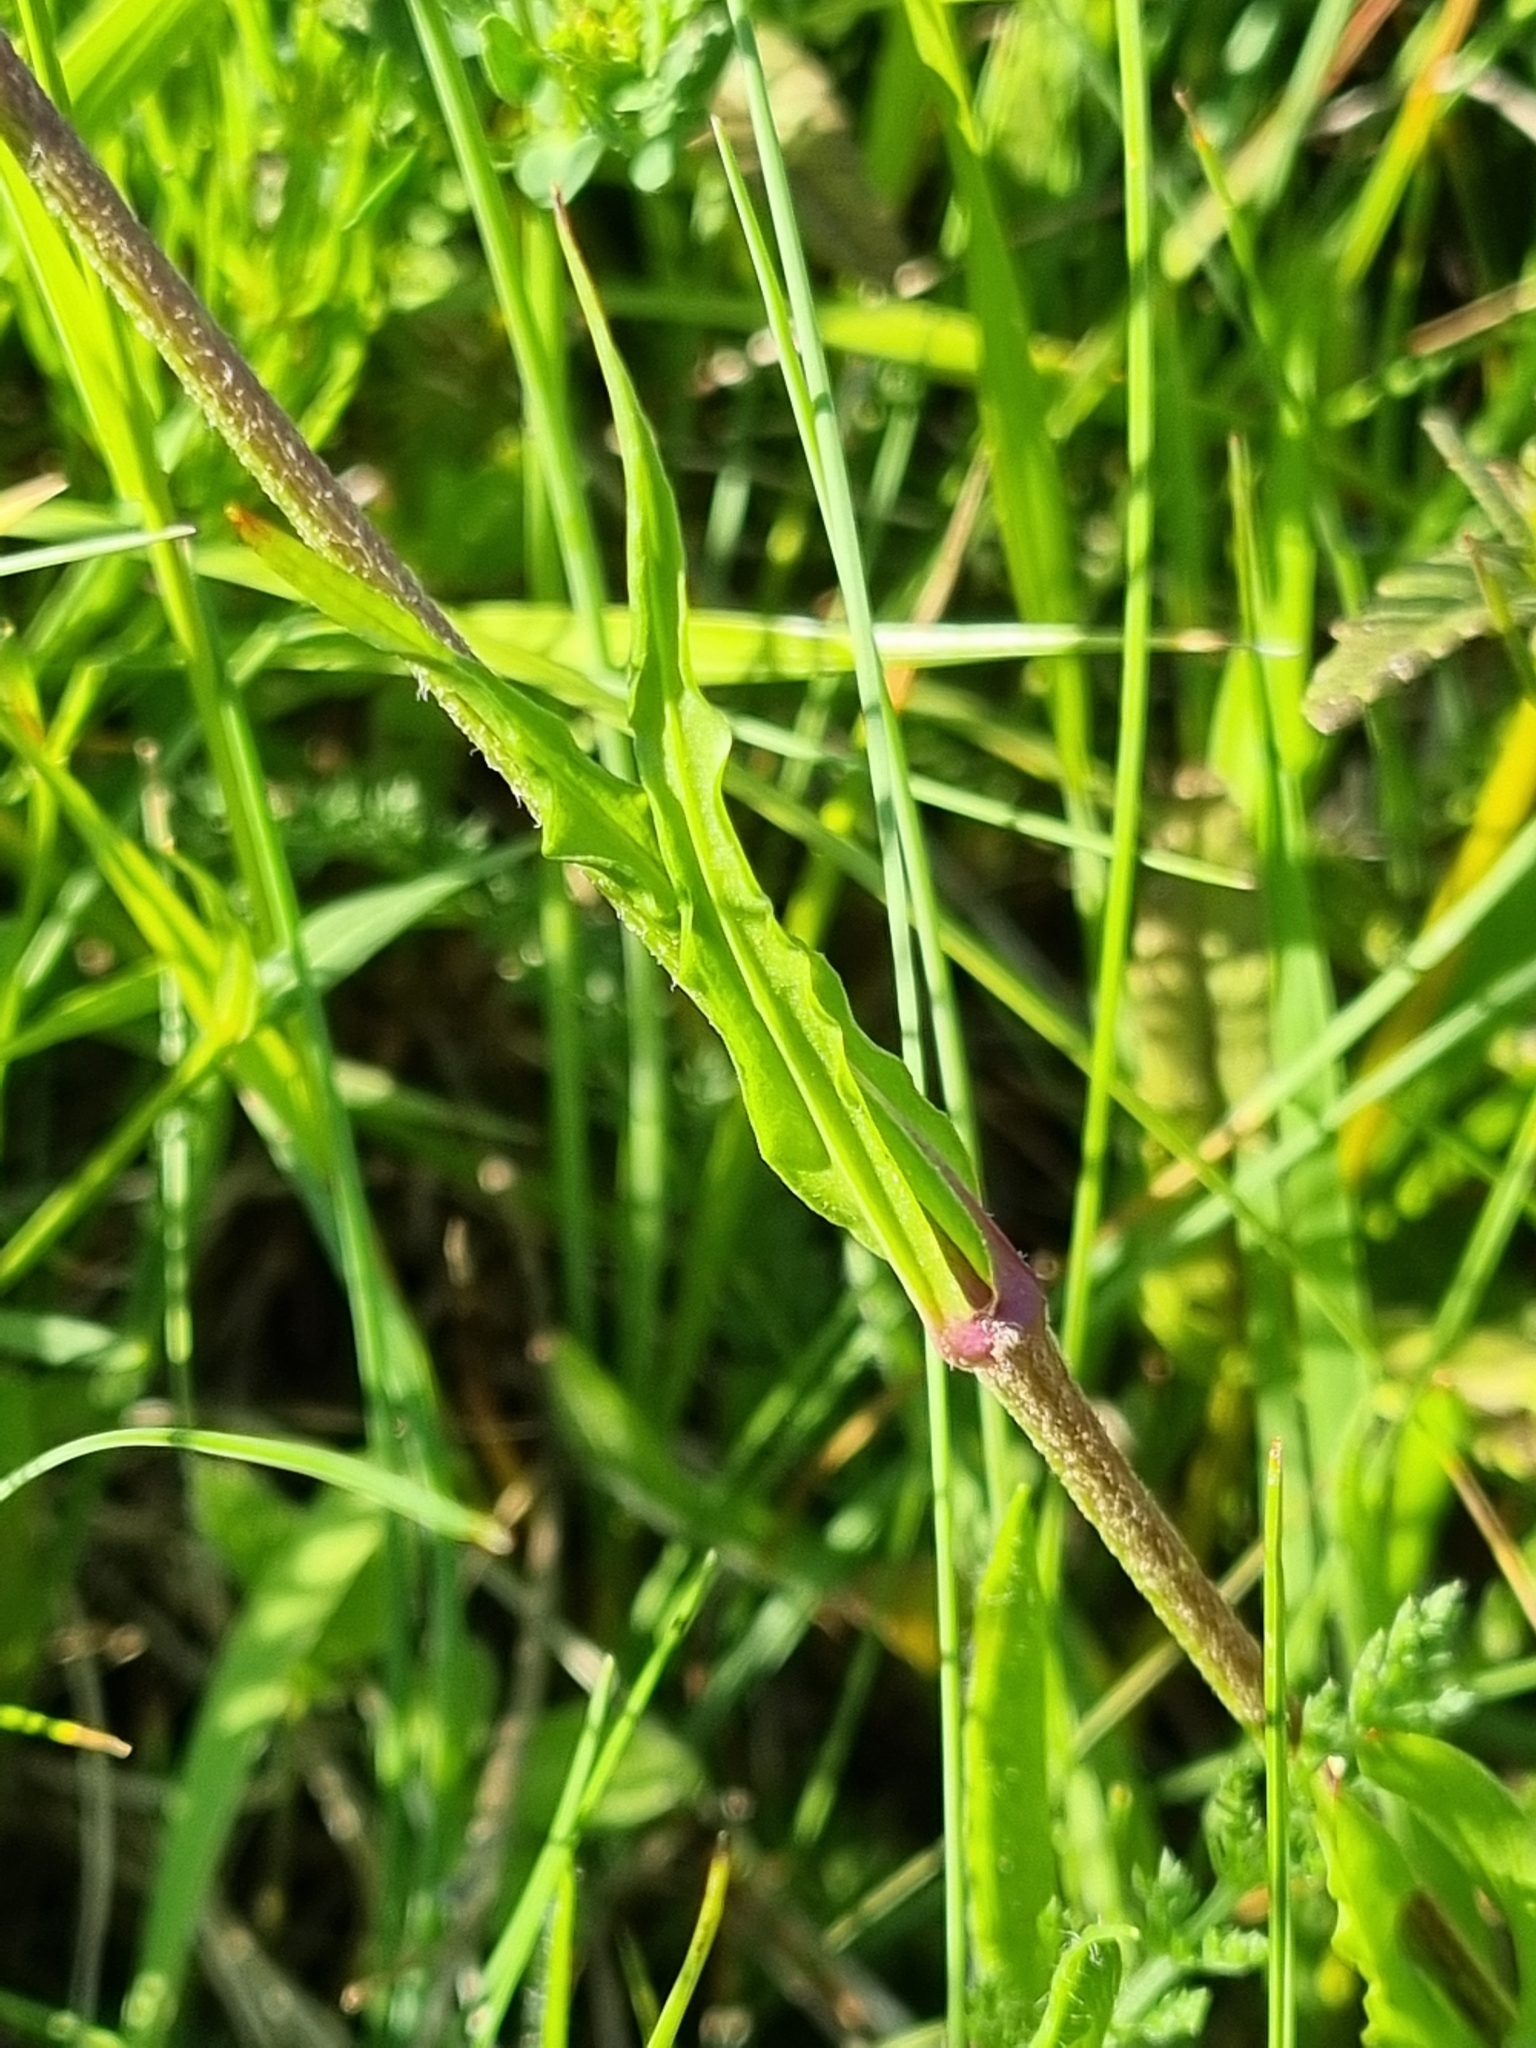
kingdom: Plantae
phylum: Tracheophyta
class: Magnoliopsida
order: Caryophyllales
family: Caryophyllaceae
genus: Silene
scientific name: Silene flos-cuculi
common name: Ragged-robin
